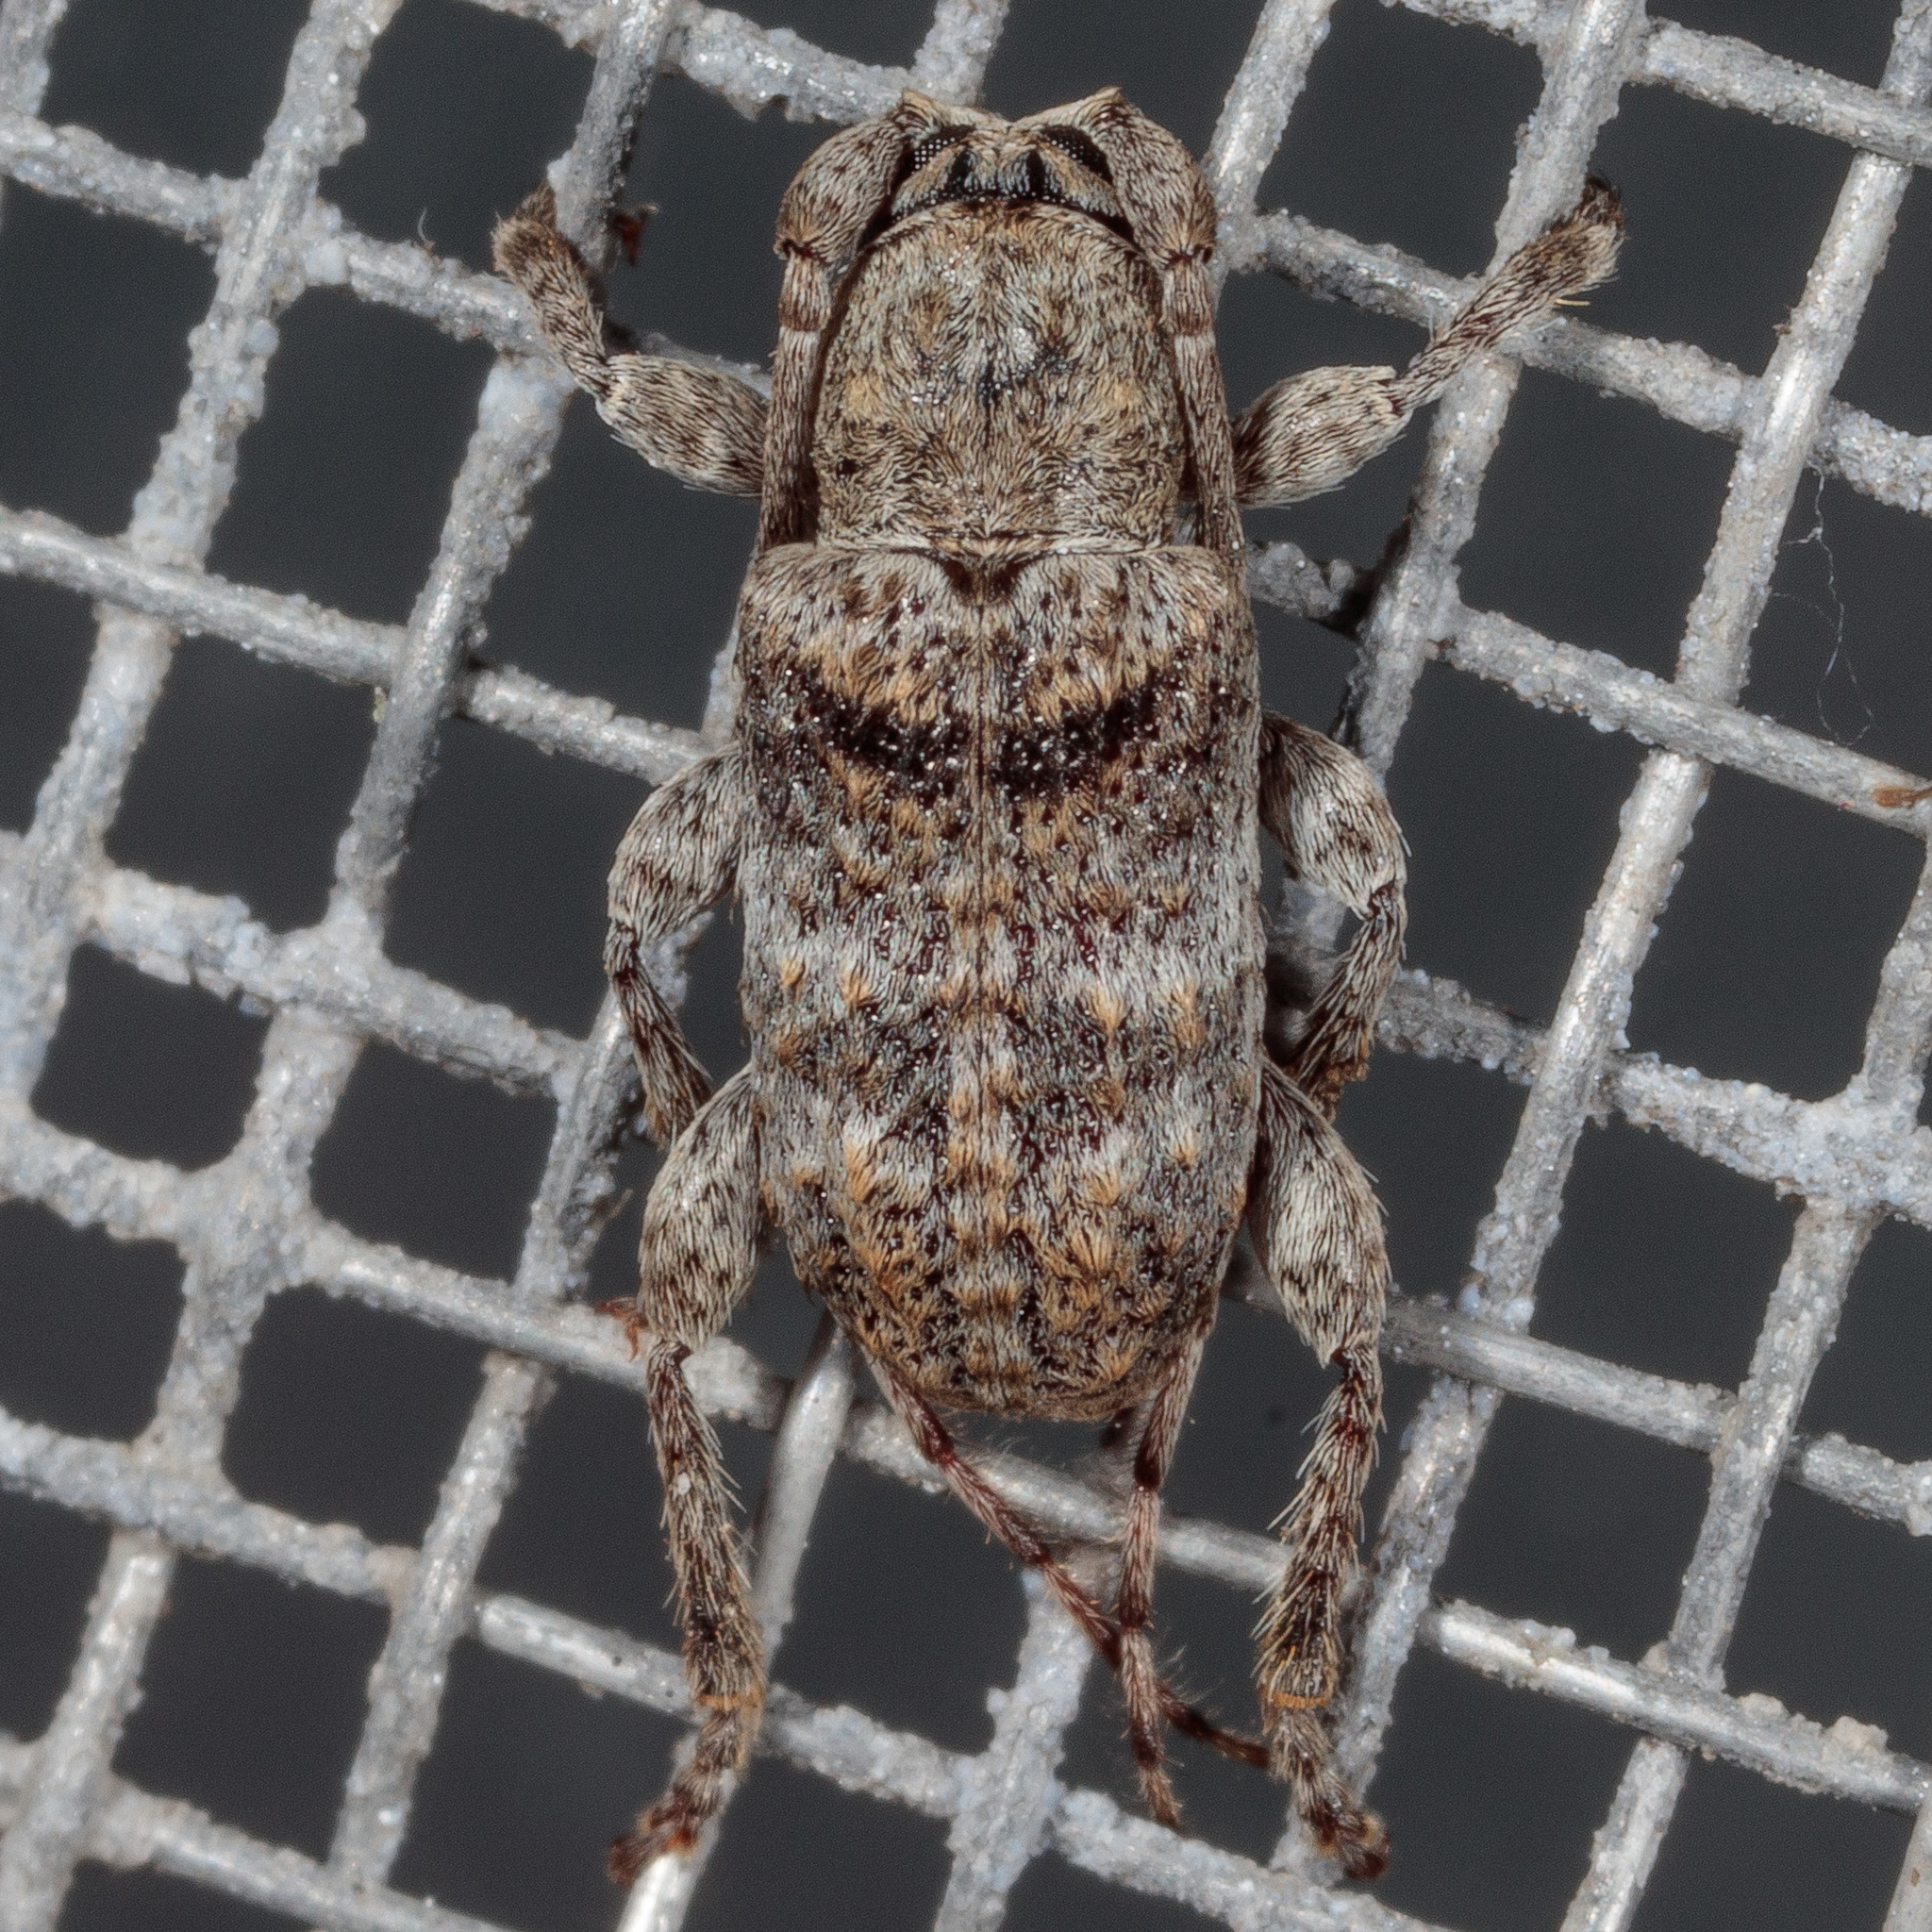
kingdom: Animalia
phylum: Arthropoda
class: Insecta
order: Coleoptera
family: Cerambycidae
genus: Ecyrus
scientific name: Ecyrus dasycerus
